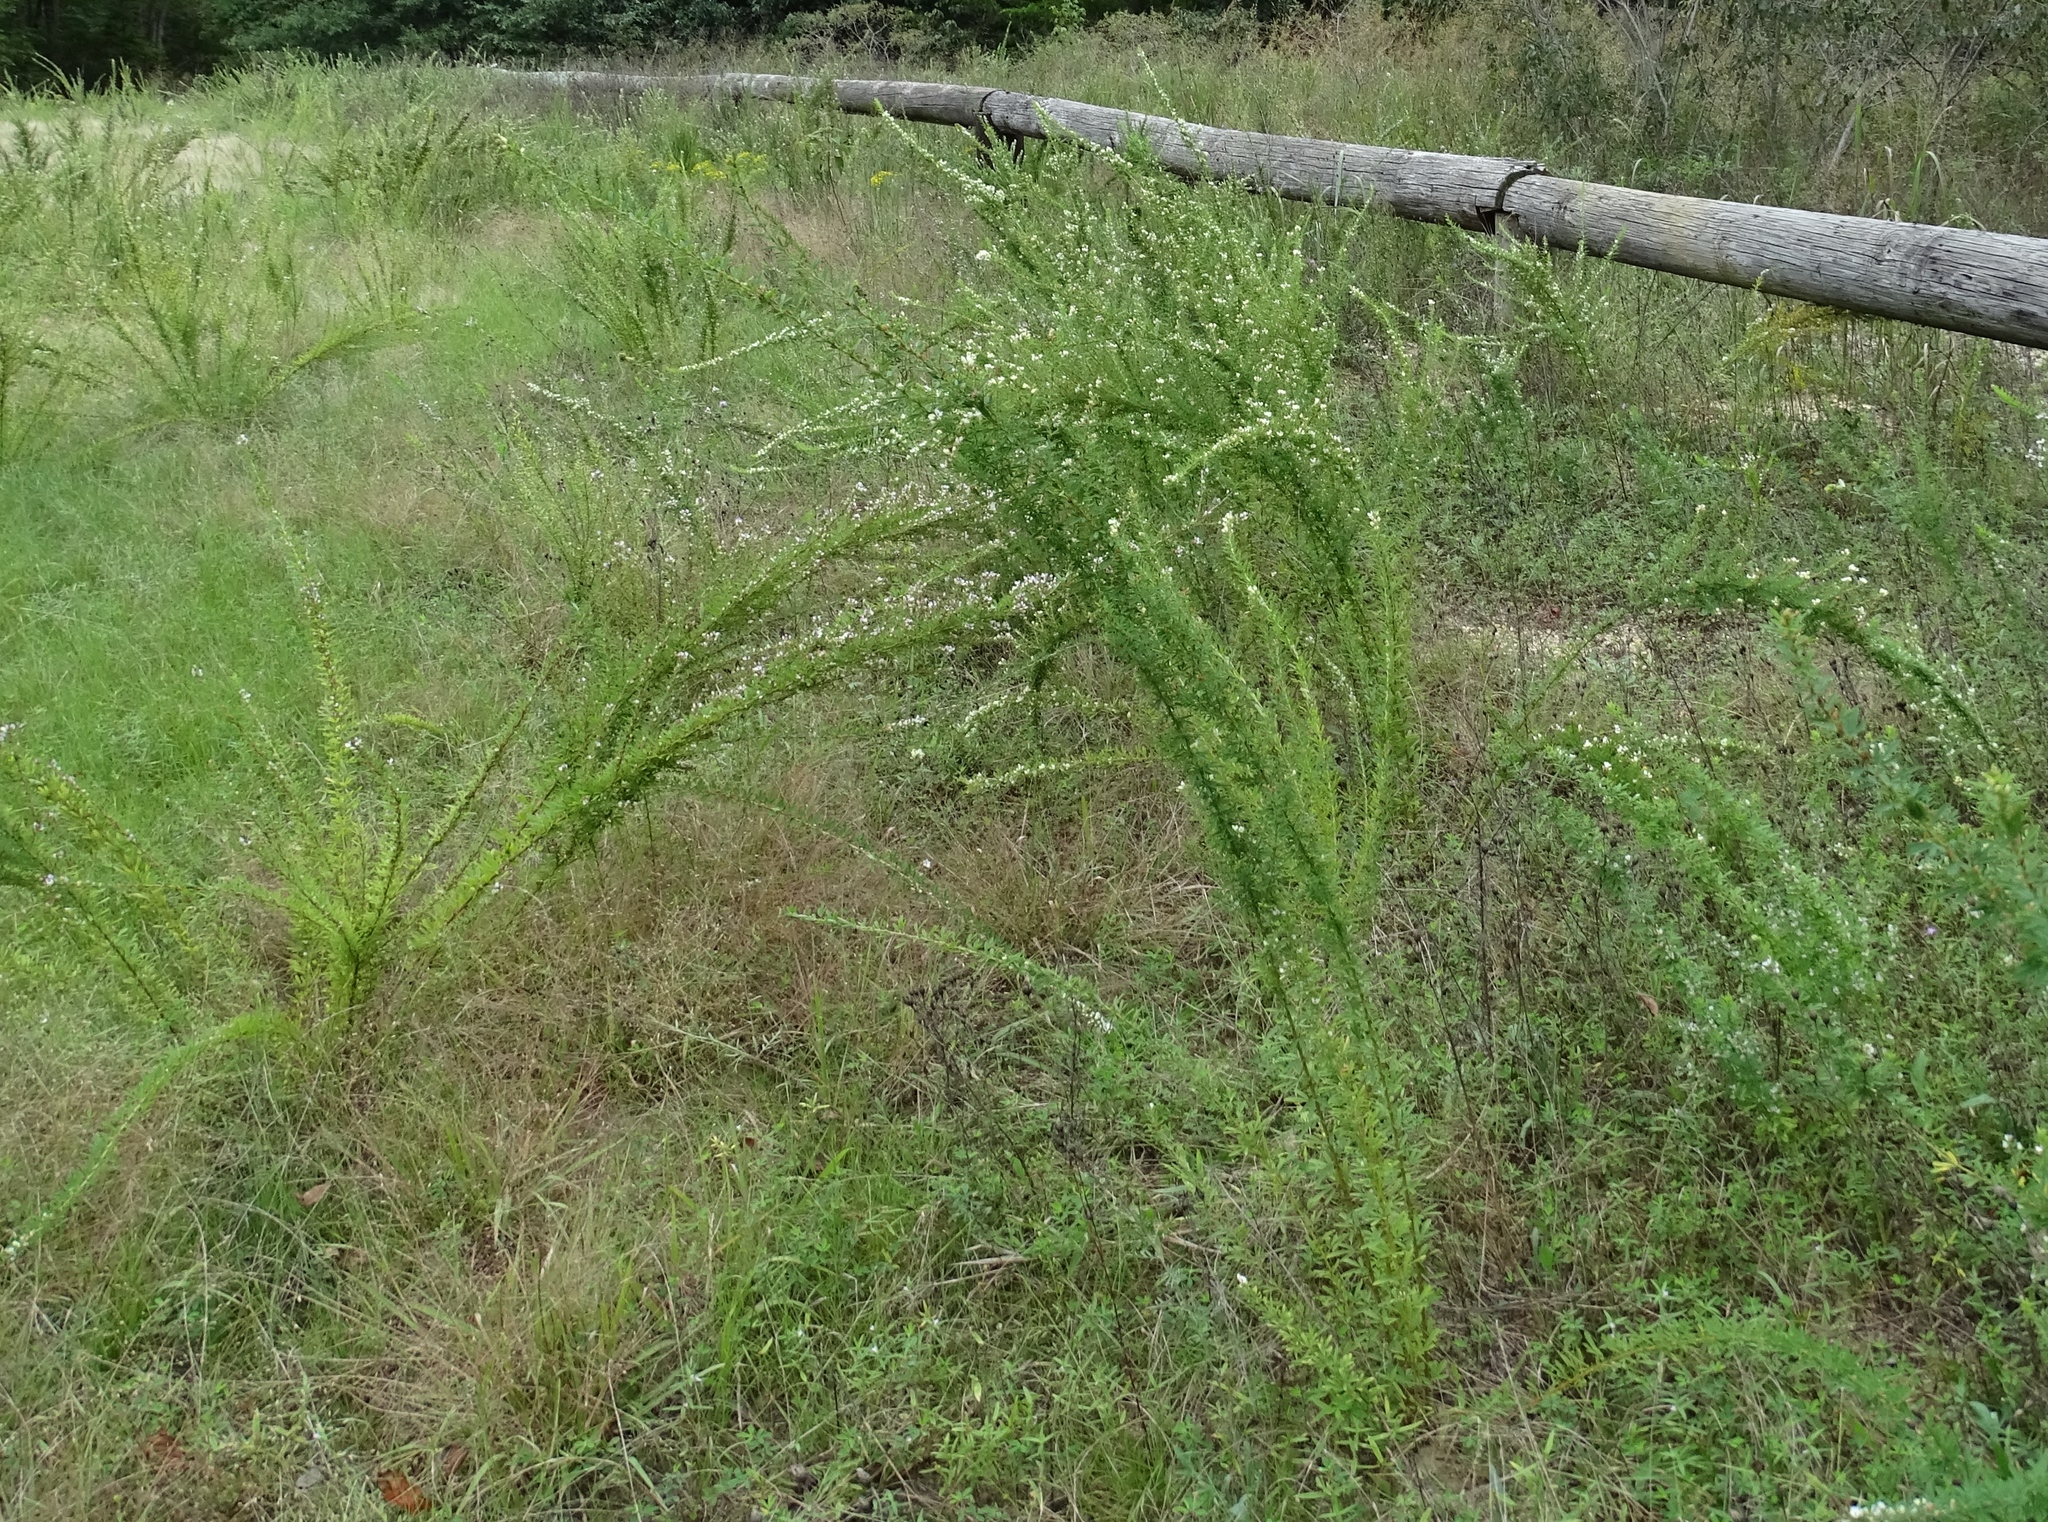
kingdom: Plantae
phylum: Tracheophyta
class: Magnoliopsida
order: Fabales
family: Fabaceae
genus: Lespedeza
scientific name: Lespedeza cuneata
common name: Chinese bush-clover
